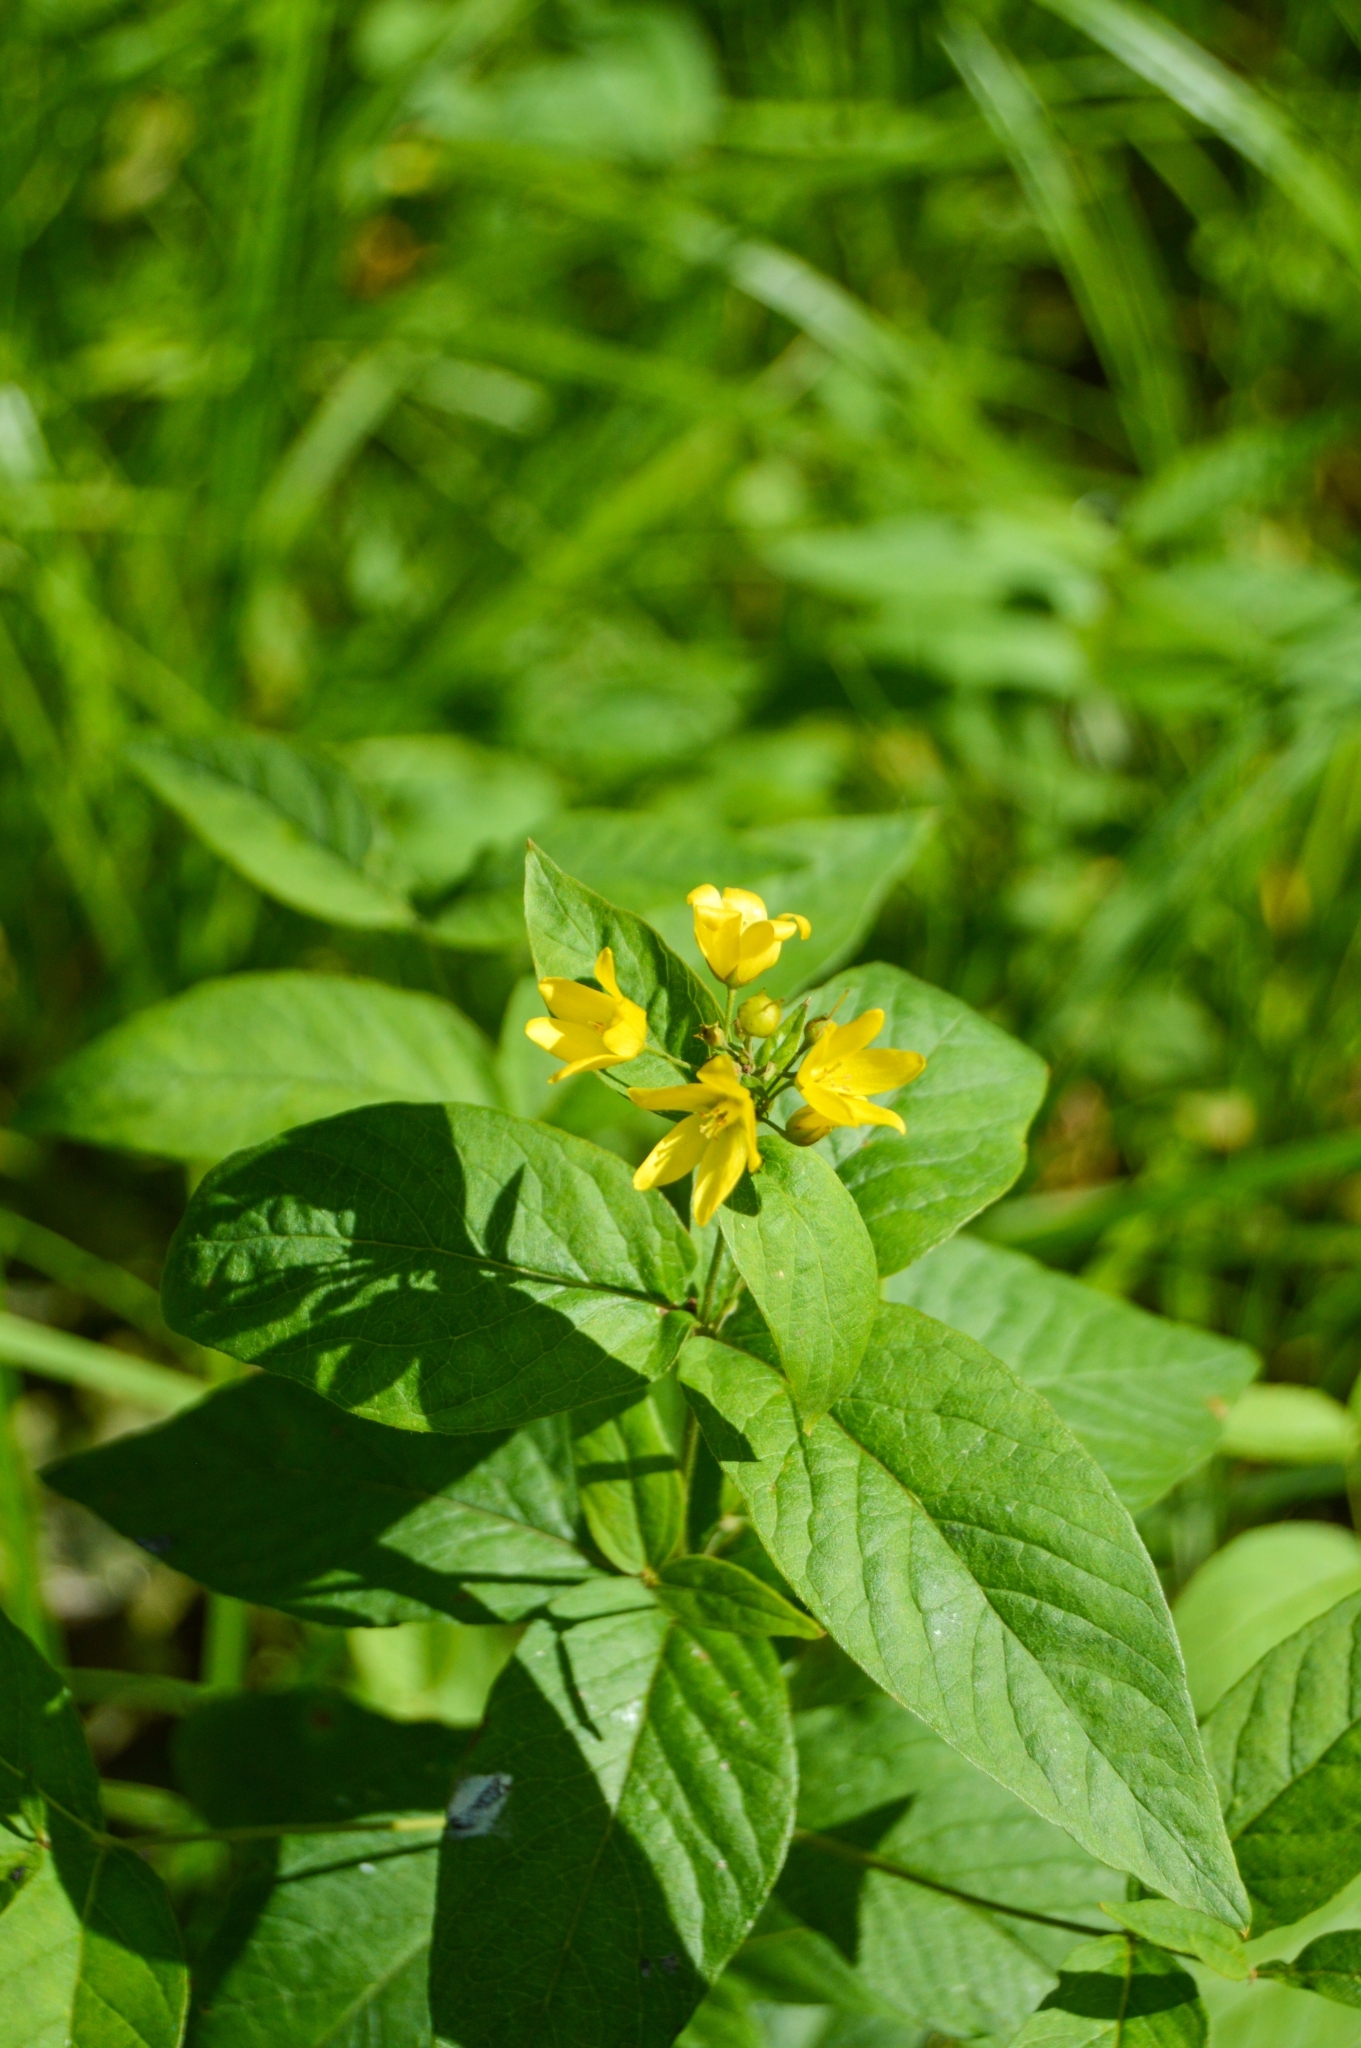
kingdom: Plantae
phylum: Tracheophyta
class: Magnoliopsida
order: Ericales
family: Primulaceae
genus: Lysimachia
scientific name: Lysimachia vulgaris
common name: Yellow loosestrife
